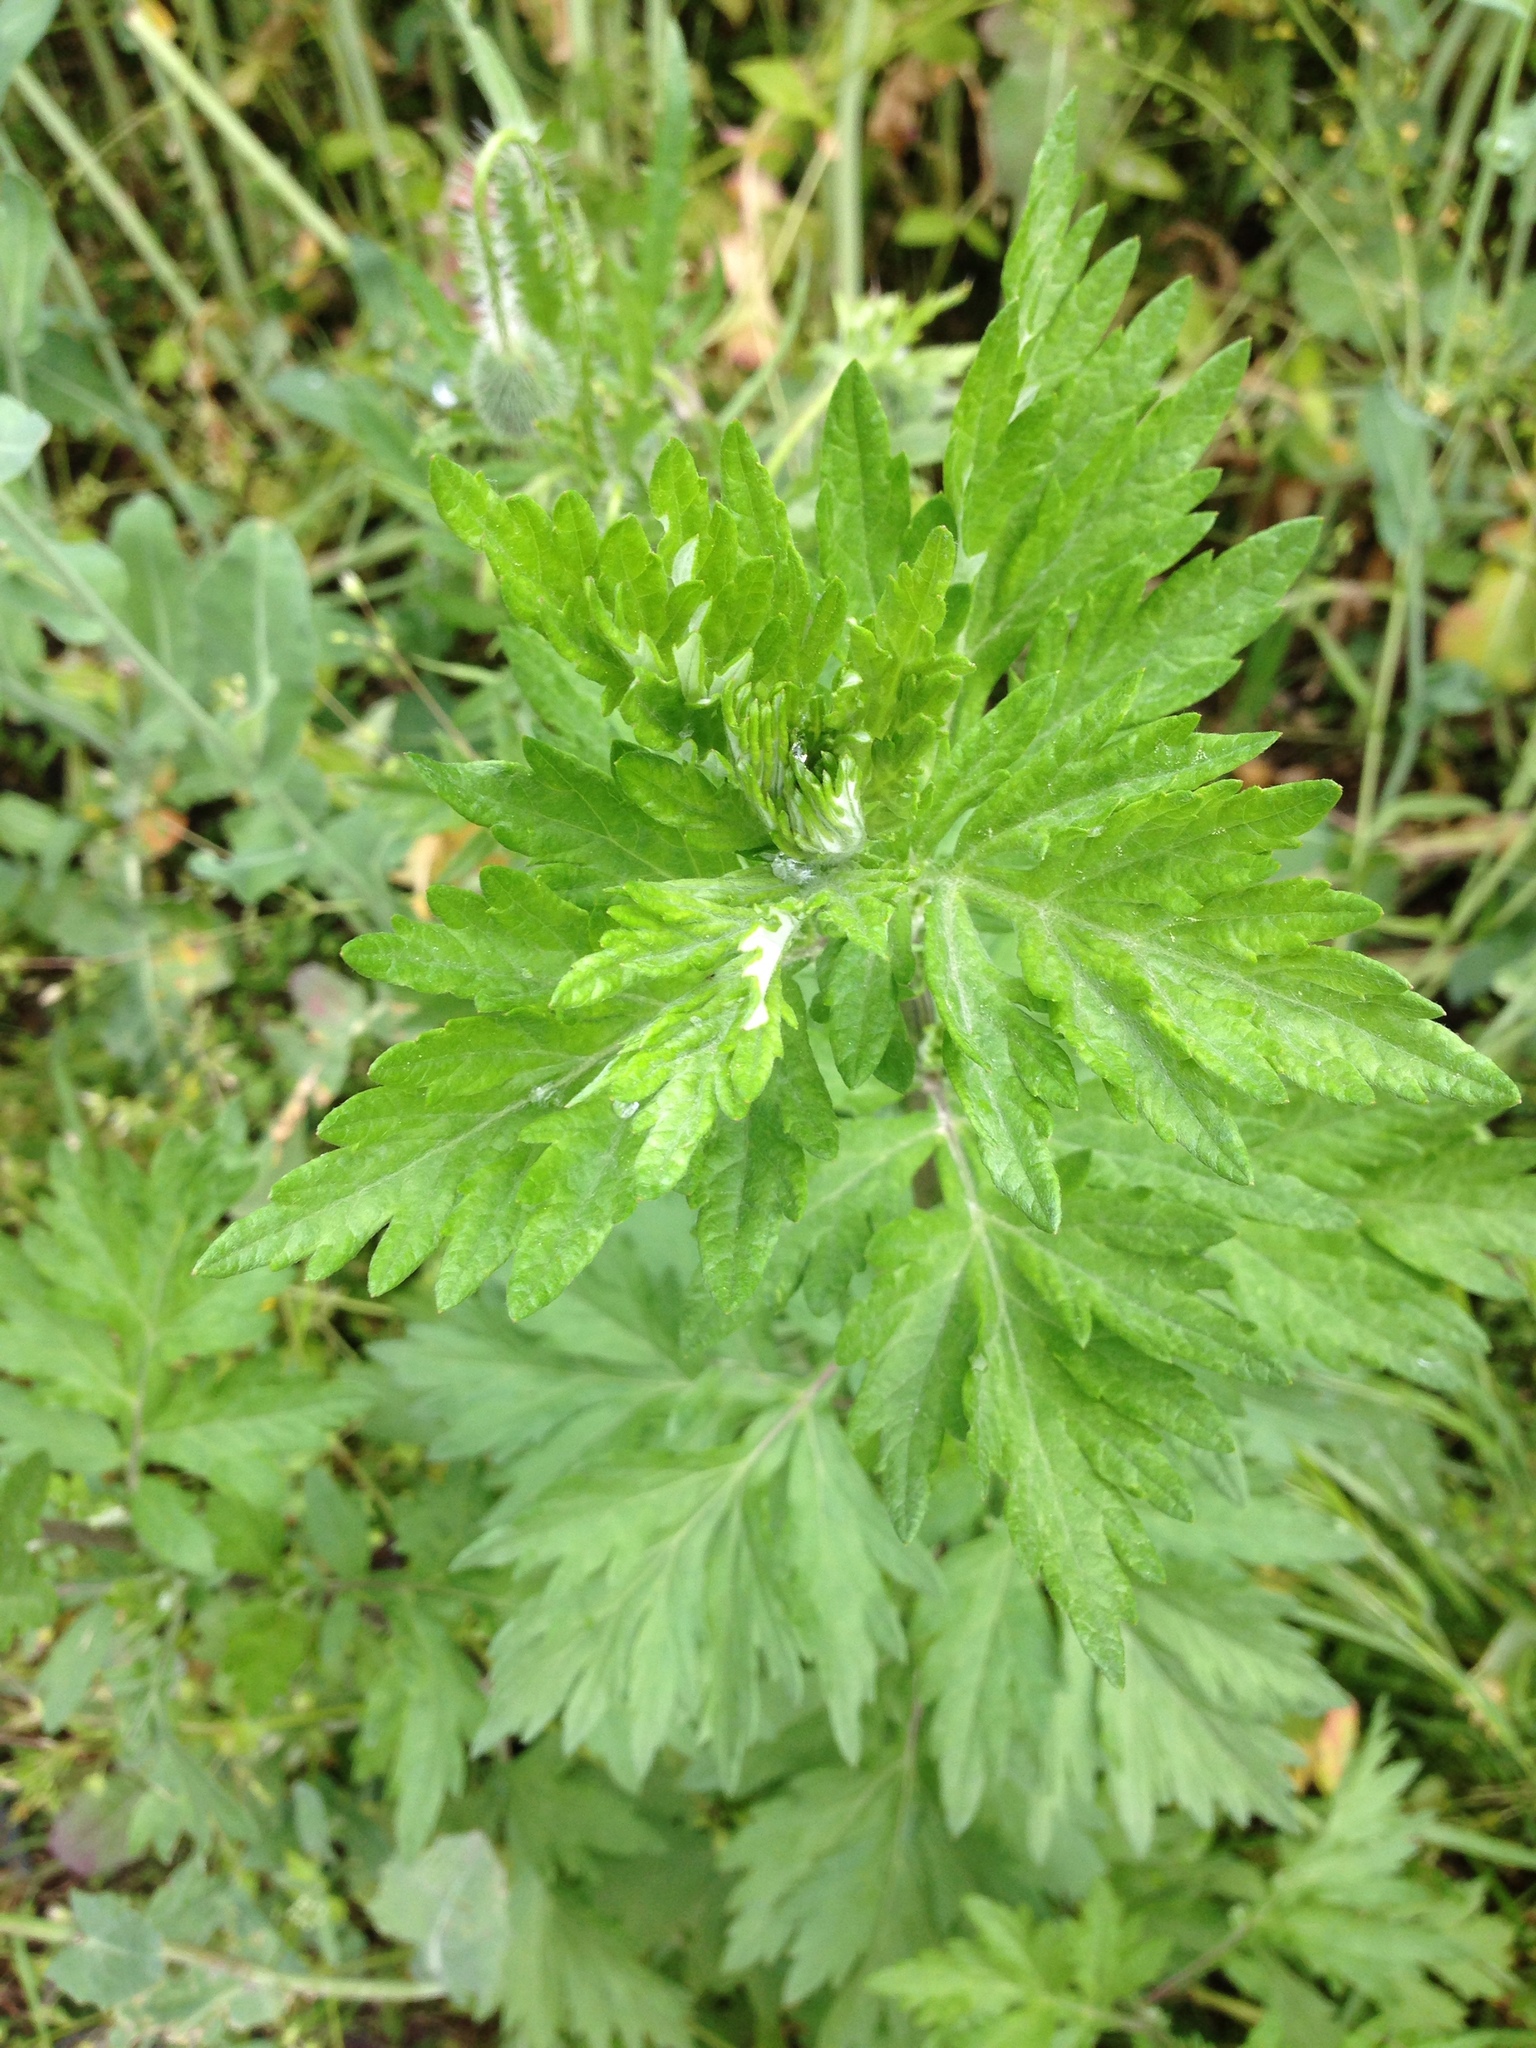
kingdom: Plantae
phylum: Tracheophyta
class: Magnoliopsida
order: Asterales
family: Asteraceae
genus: Artemisia
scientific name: Artemisia vulgaris
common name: Mugwort
